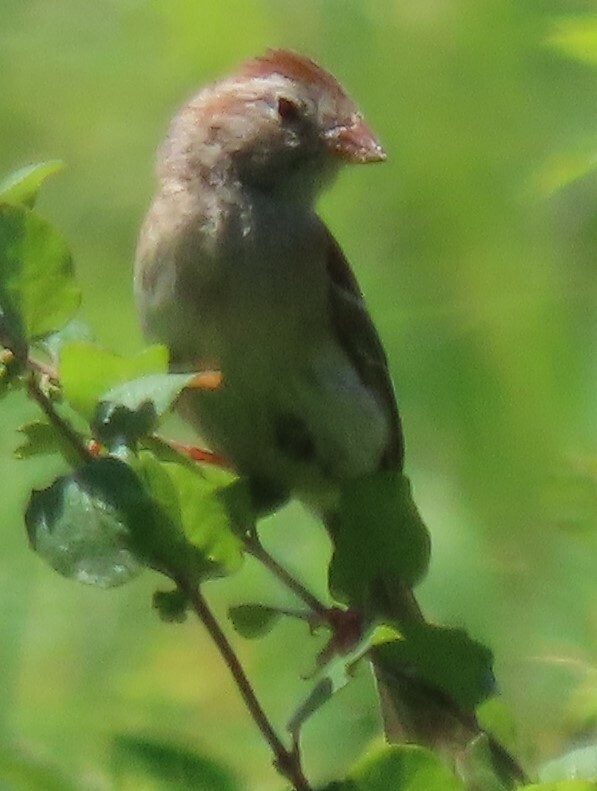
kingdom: Animalia
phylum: Chordata
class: Aves
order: Passeriformes
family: Passerellidae
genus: Spizella
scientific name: Spizella pusilla
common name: Field sparrow
